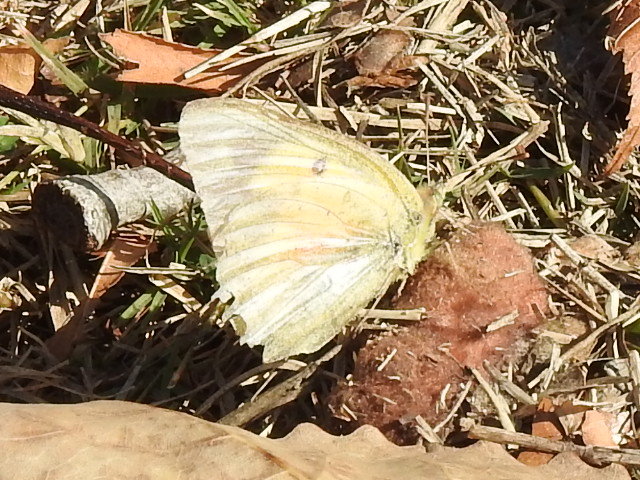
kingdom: Animalia
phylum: Arthropoda
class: Insecta
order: Lepidoptera
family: Pieridae
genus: Colias
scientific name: Colias eurytheme
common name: Alfalfa butterfly
